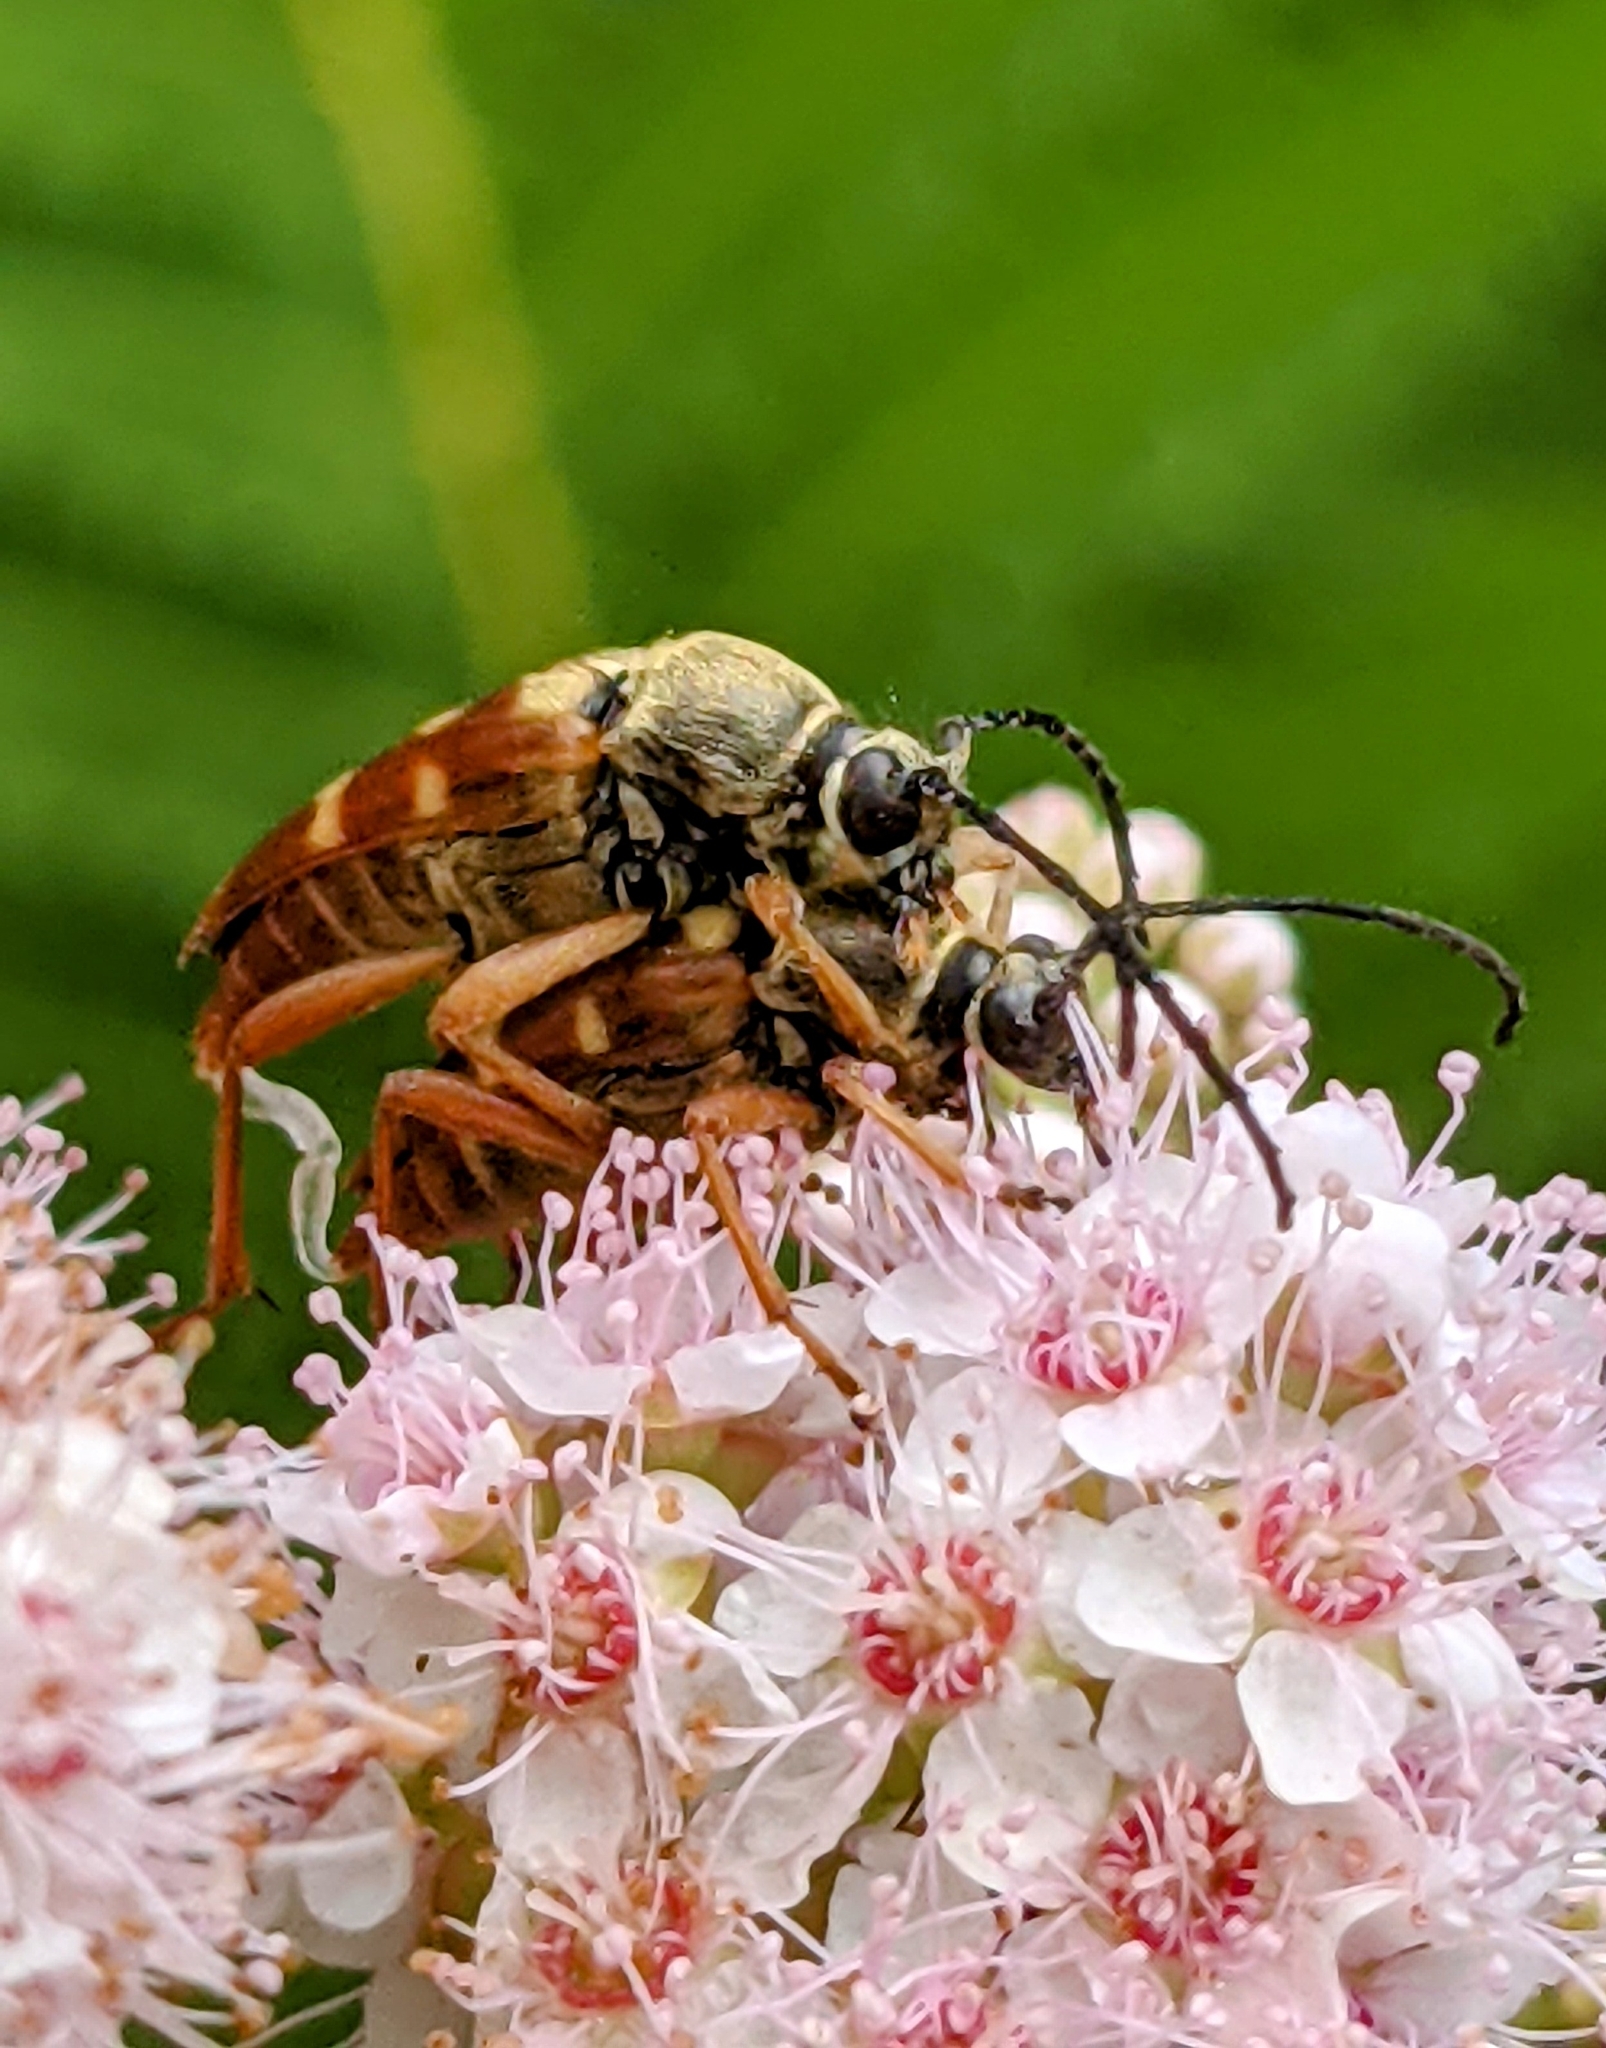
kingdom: Animalia
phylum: Arthropoda
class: Insecta
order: Coleoptera
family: Cerambycidae
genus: Typocerus
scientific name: Typocerus velutinus
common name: Banded longhorn beetle
